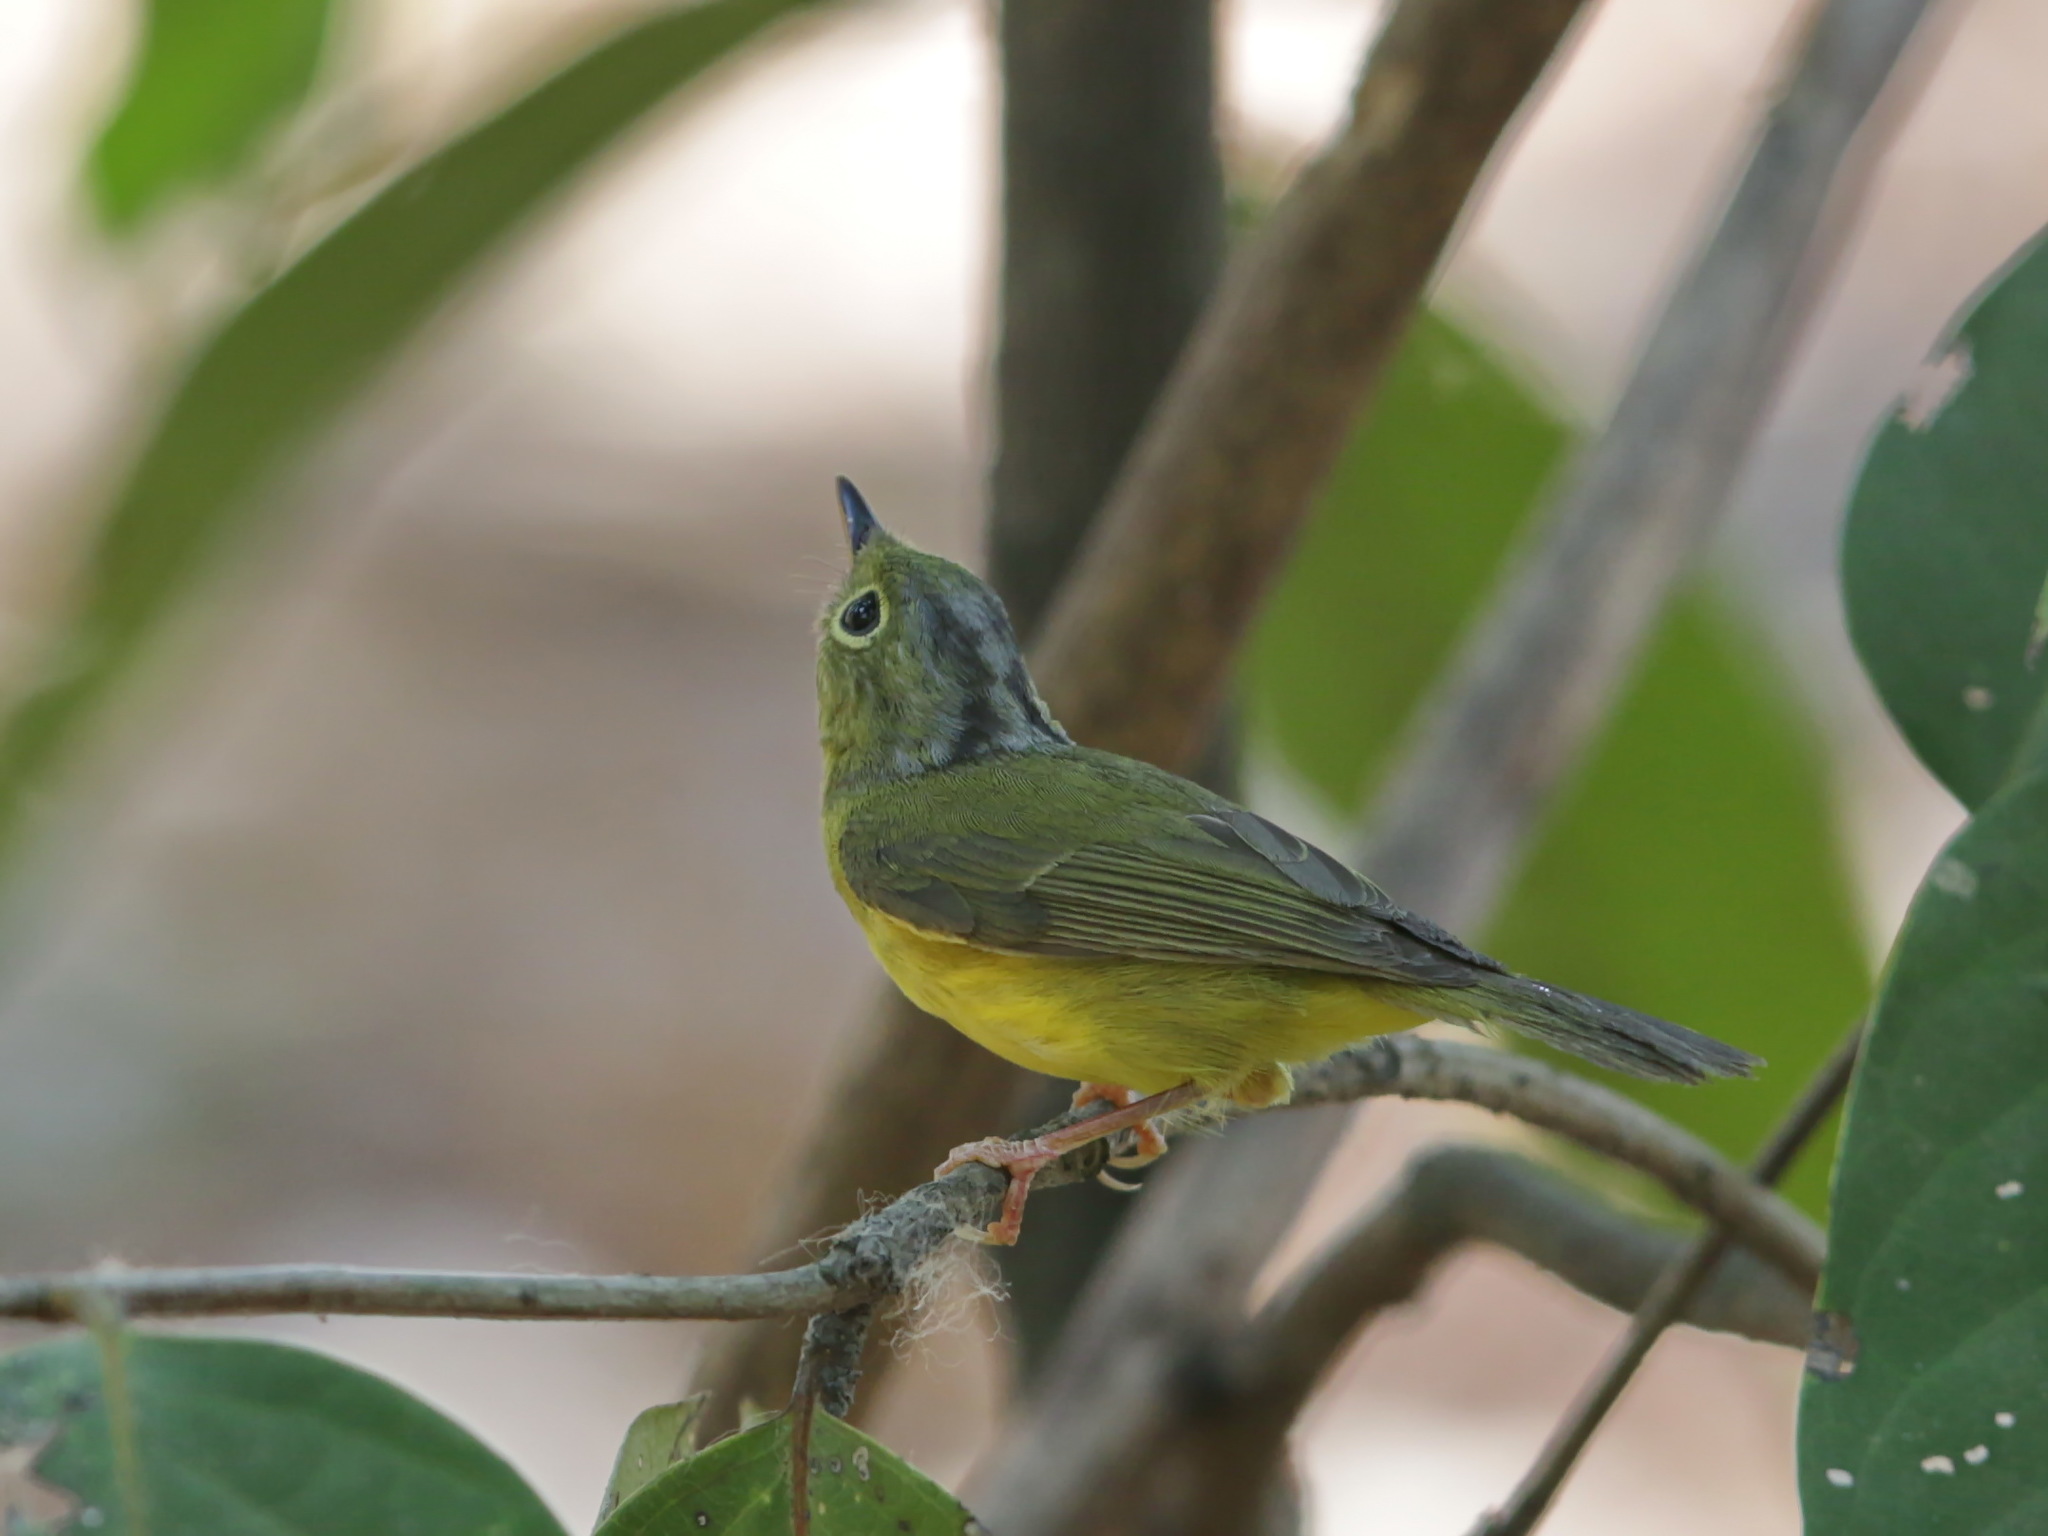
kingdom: Animalia
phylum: Chordata
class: Aves
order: Passeriformes
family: Phylloscopidae
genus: Seicercus
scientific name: Seicercus soror
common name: Plain-tailed warbler
